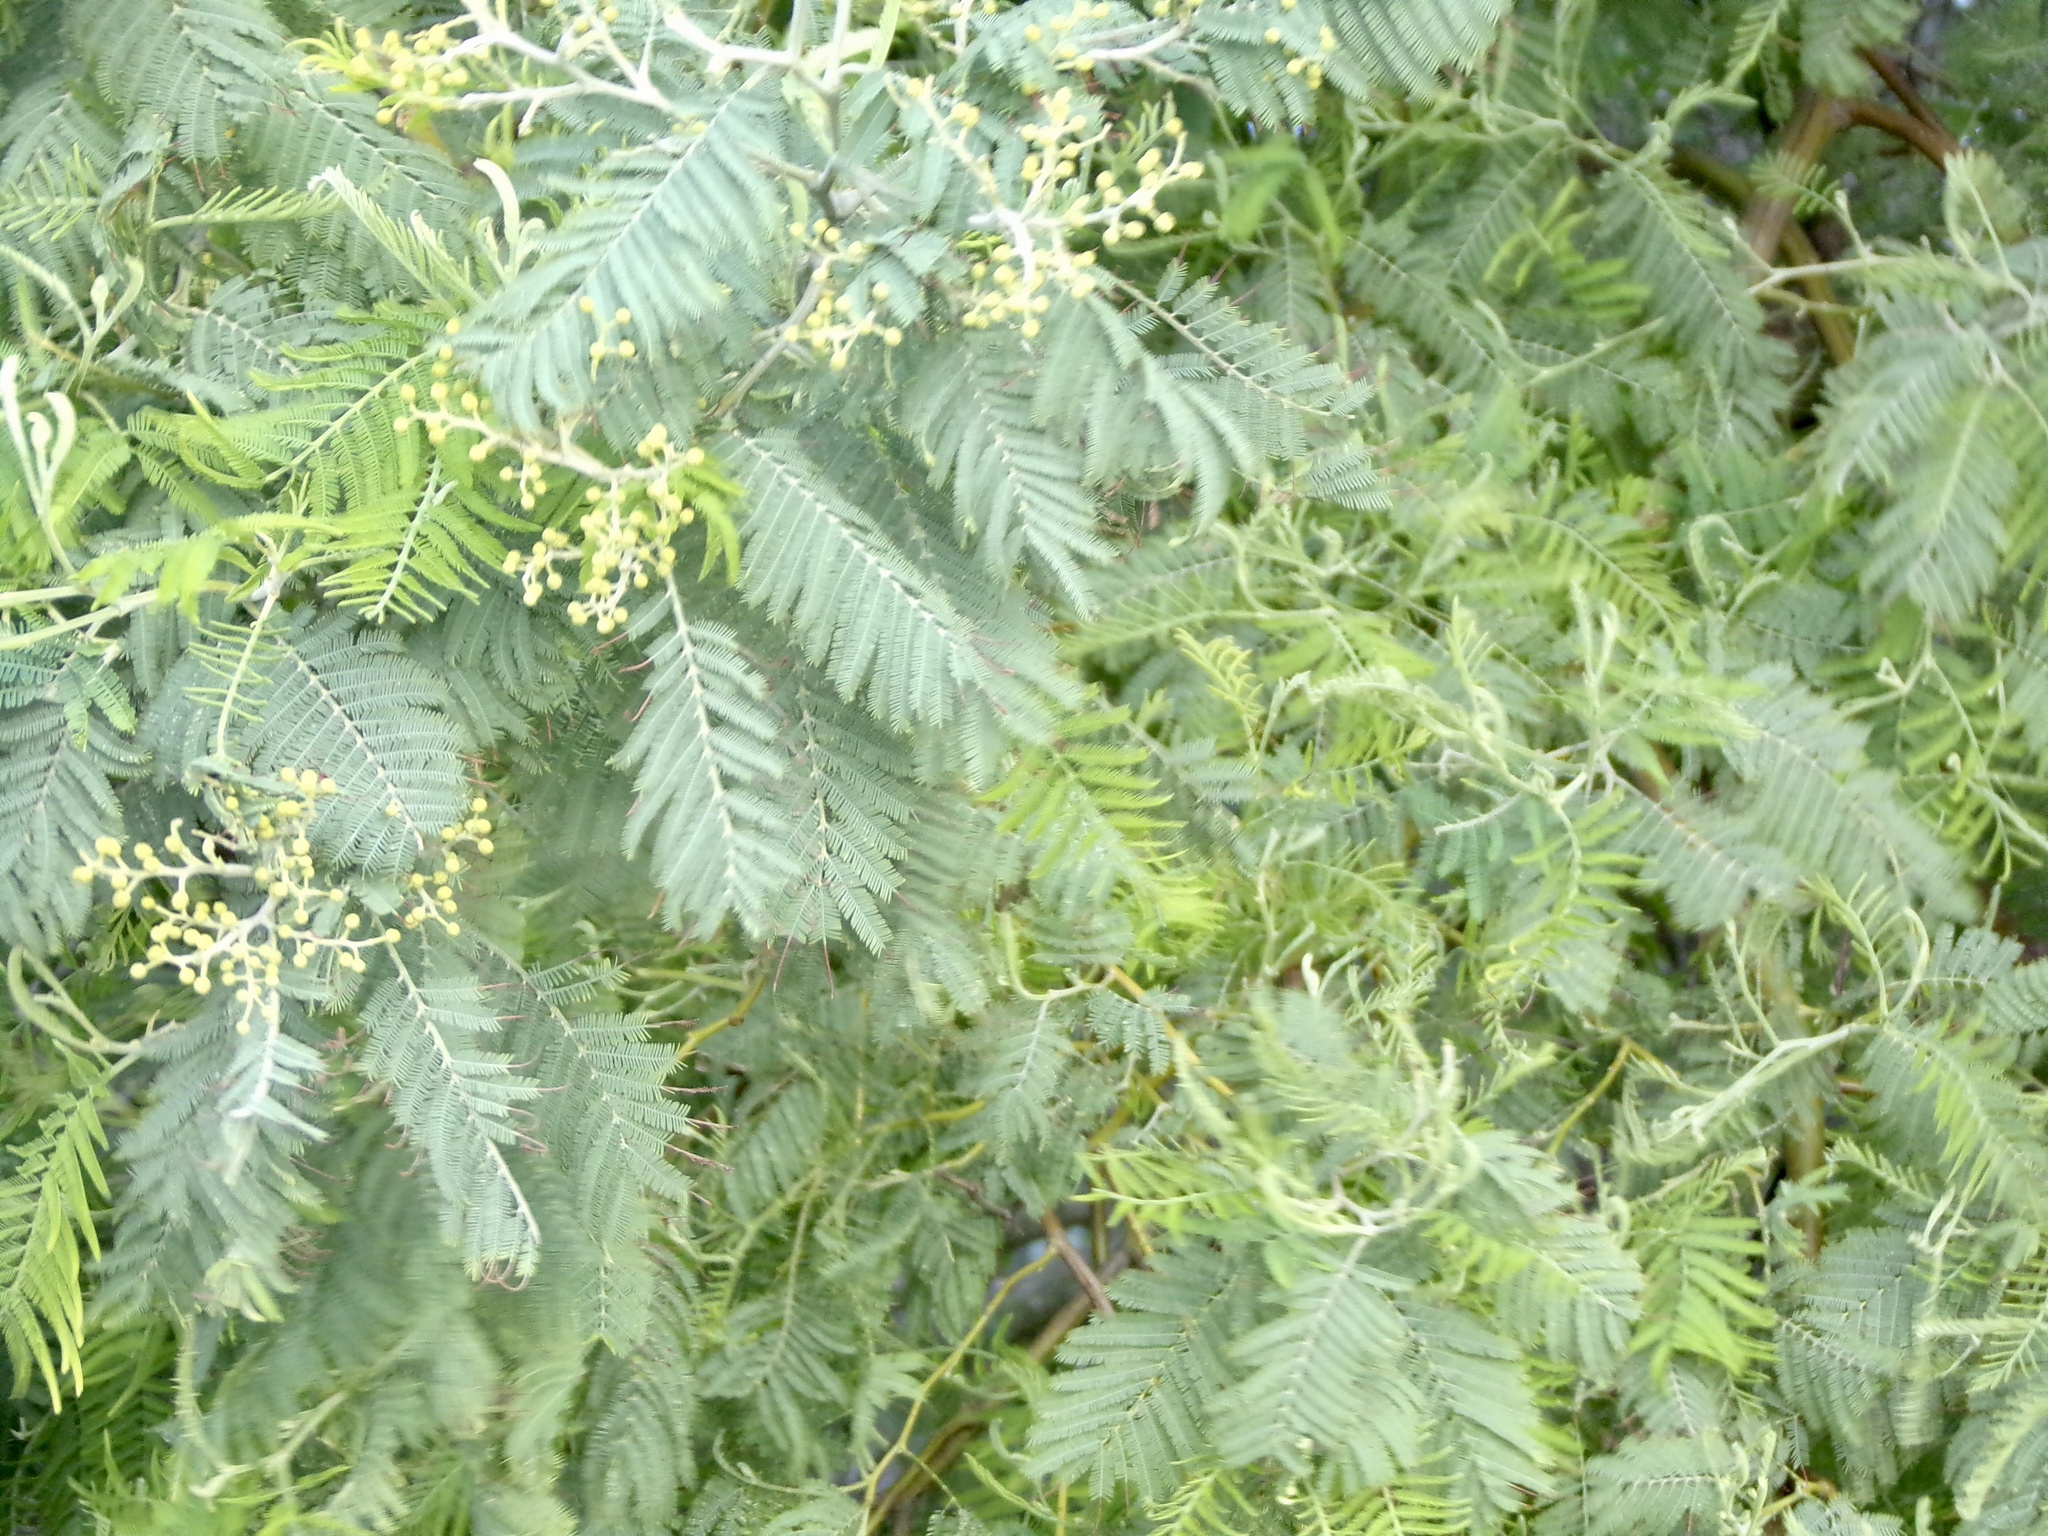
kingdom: Plantae
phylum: Tracheophyta
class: Magnoliopsida
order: Fabales
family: Fabaceae
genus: Acacia
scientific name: Acacia dealbata
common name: Silver wattle
